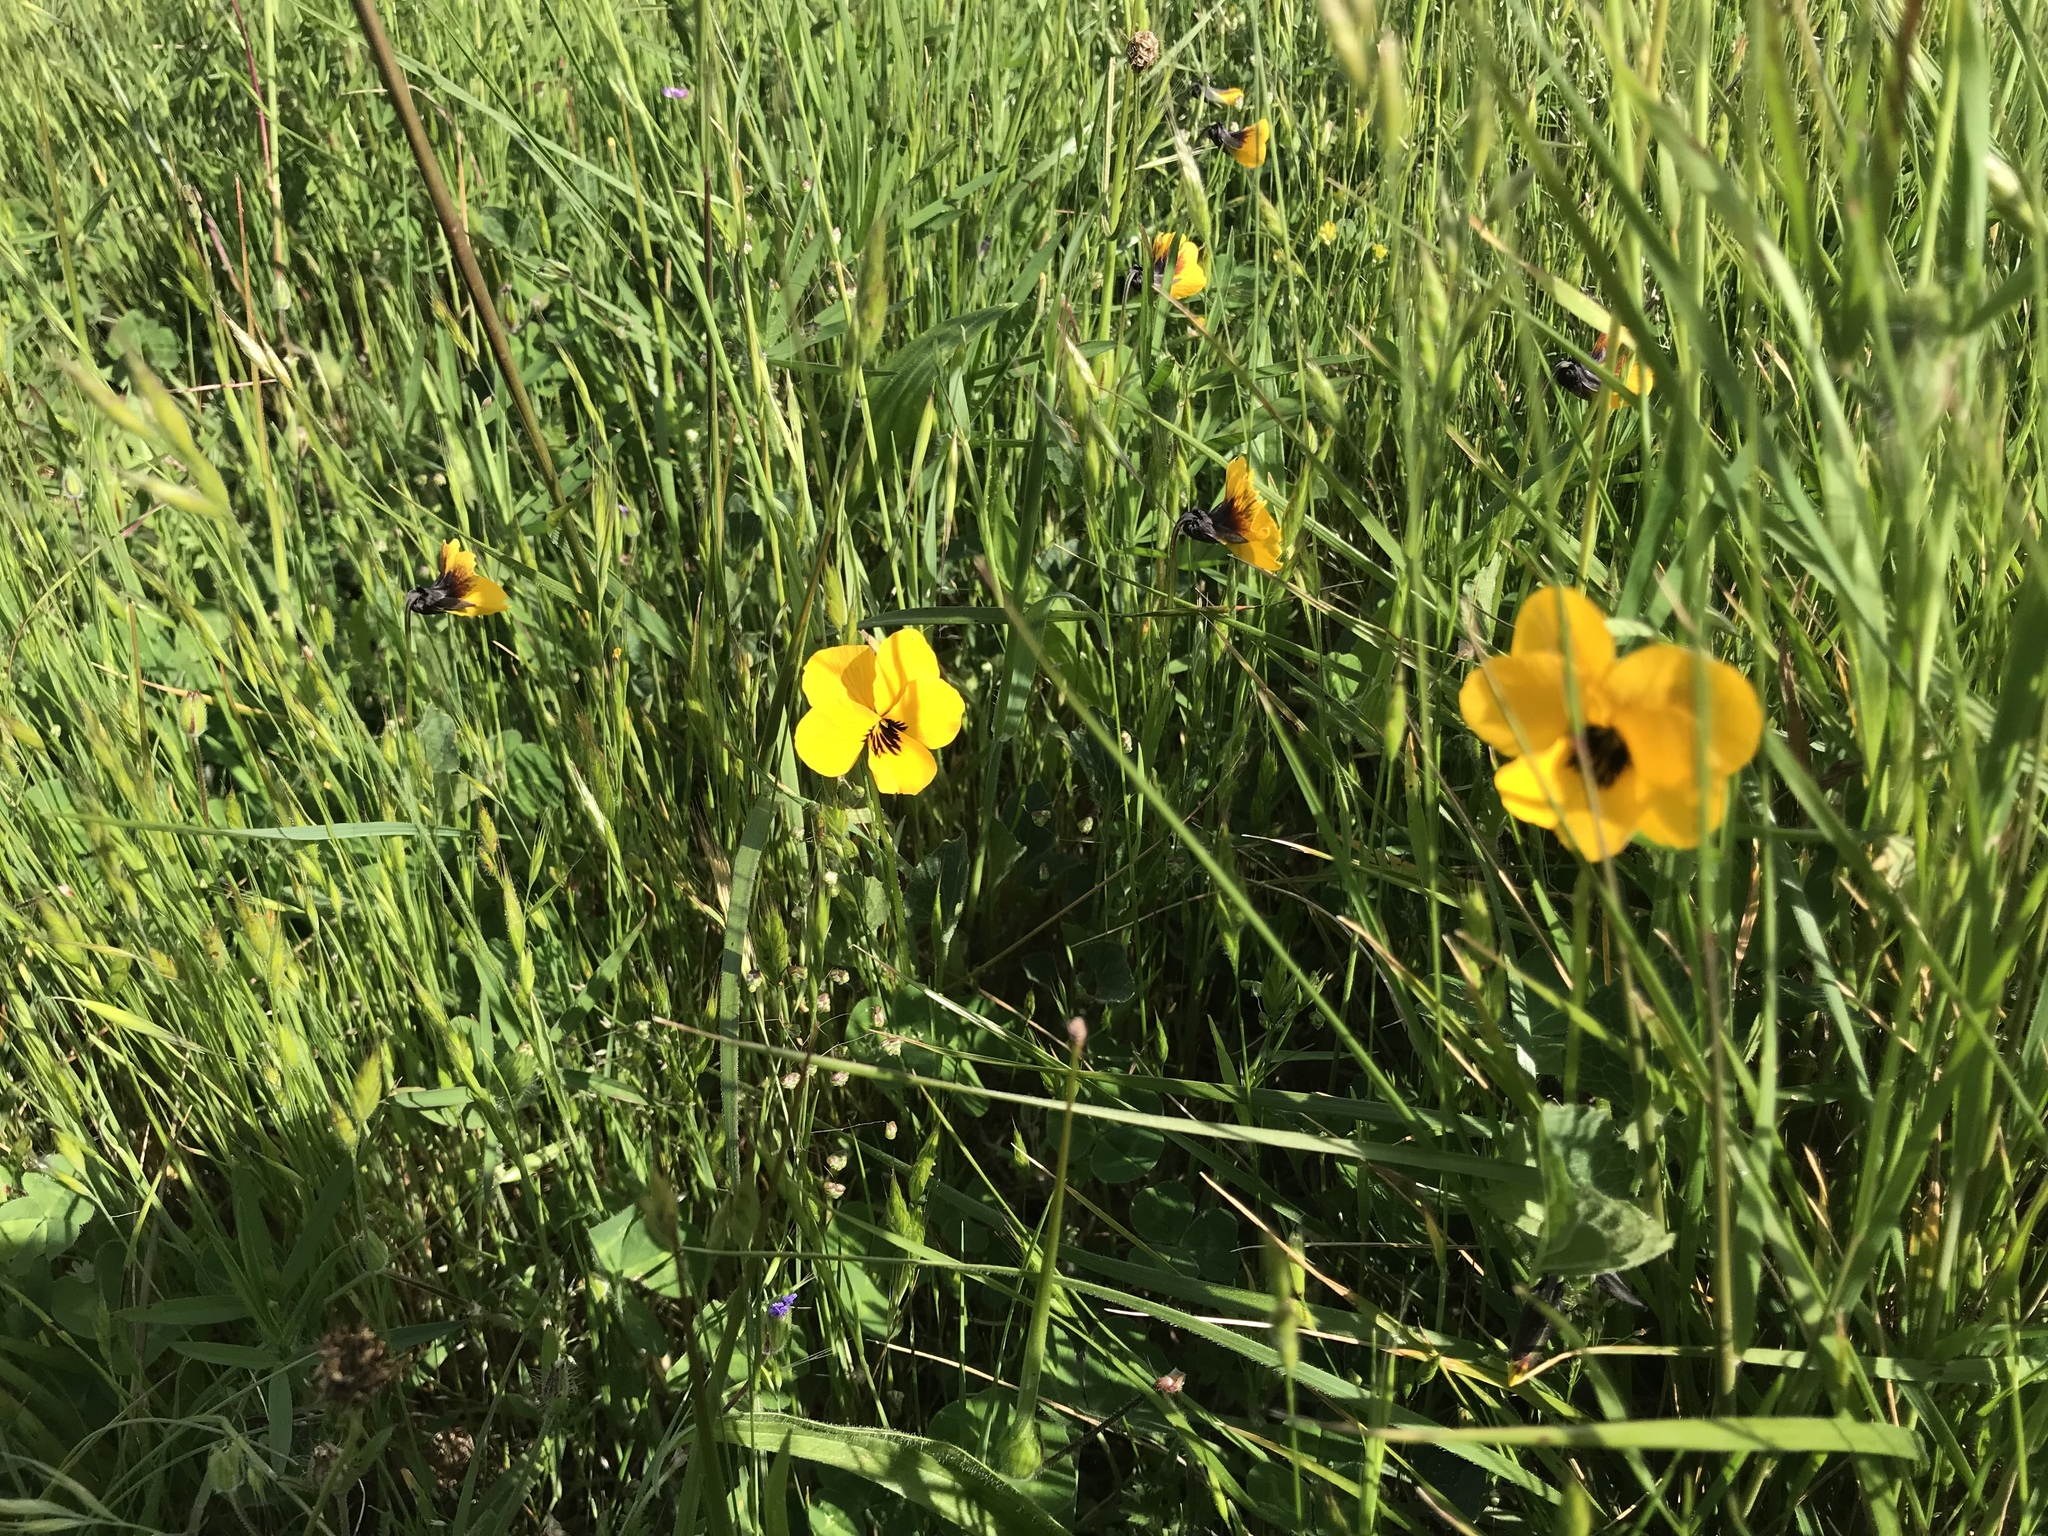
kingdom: Plantae
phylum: Tracheophyta
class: Magnoliopsida
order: Malpighiales
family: Violaceae
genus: Viola
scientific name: Viola pedunculata
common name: California golden violet
